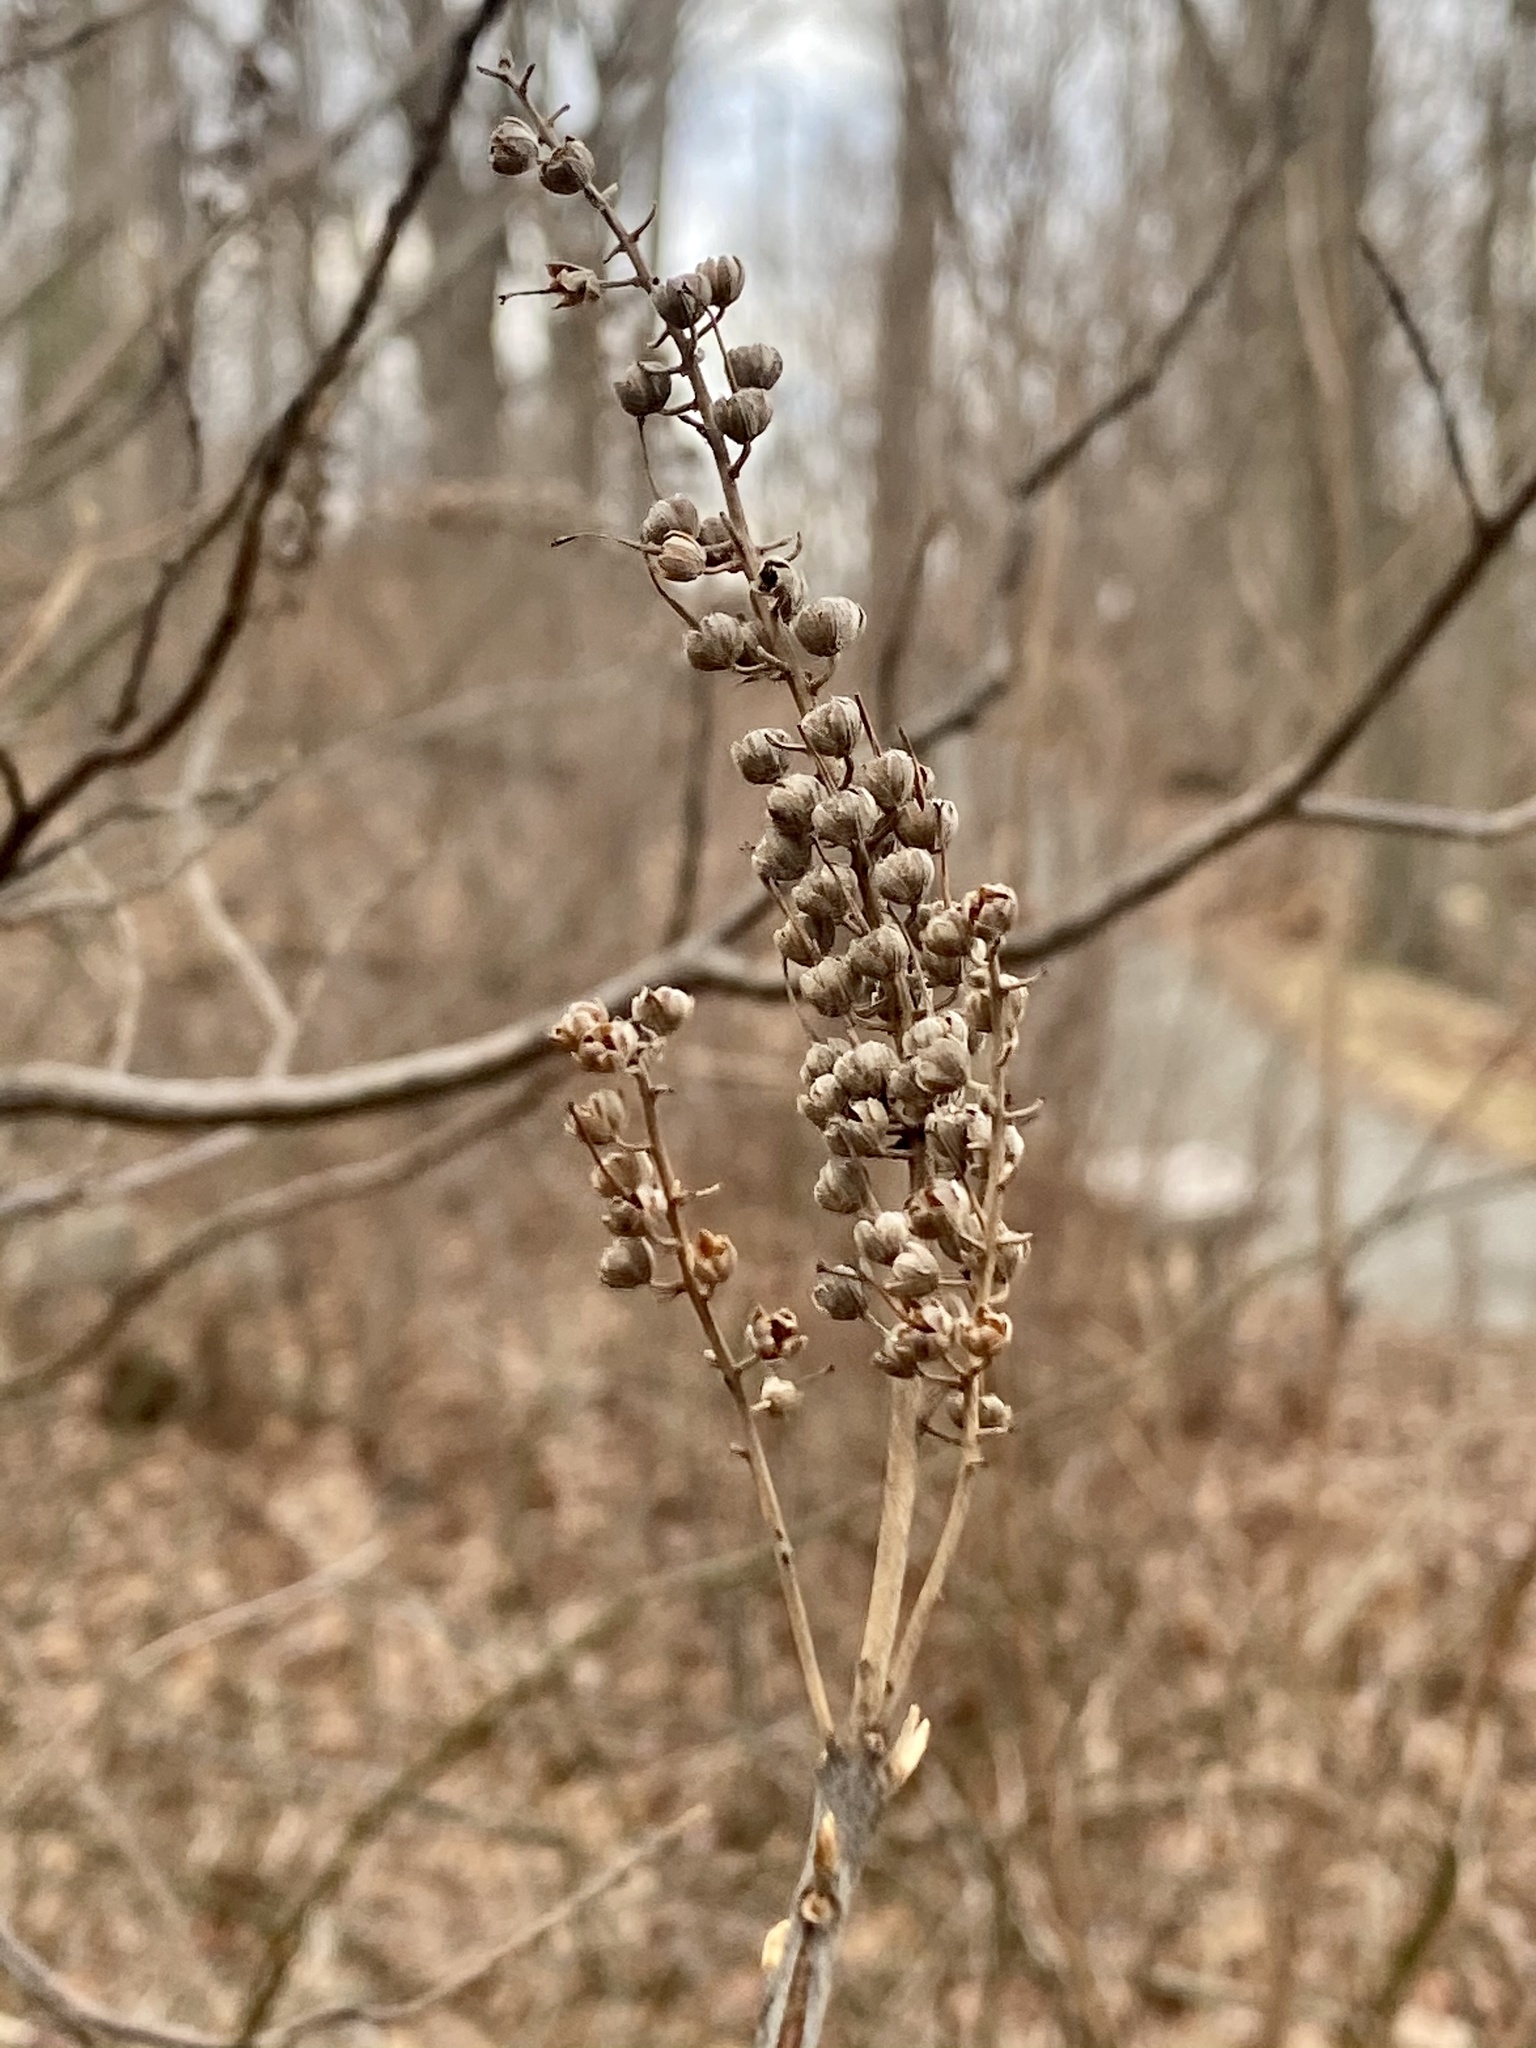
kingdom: Plantae
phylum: Tracheophyta
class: Magnoliopsida
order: Ericales
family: Clethraceae
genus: Clethra
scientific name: Clethra alnifolia
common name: Sweet pepperbush
